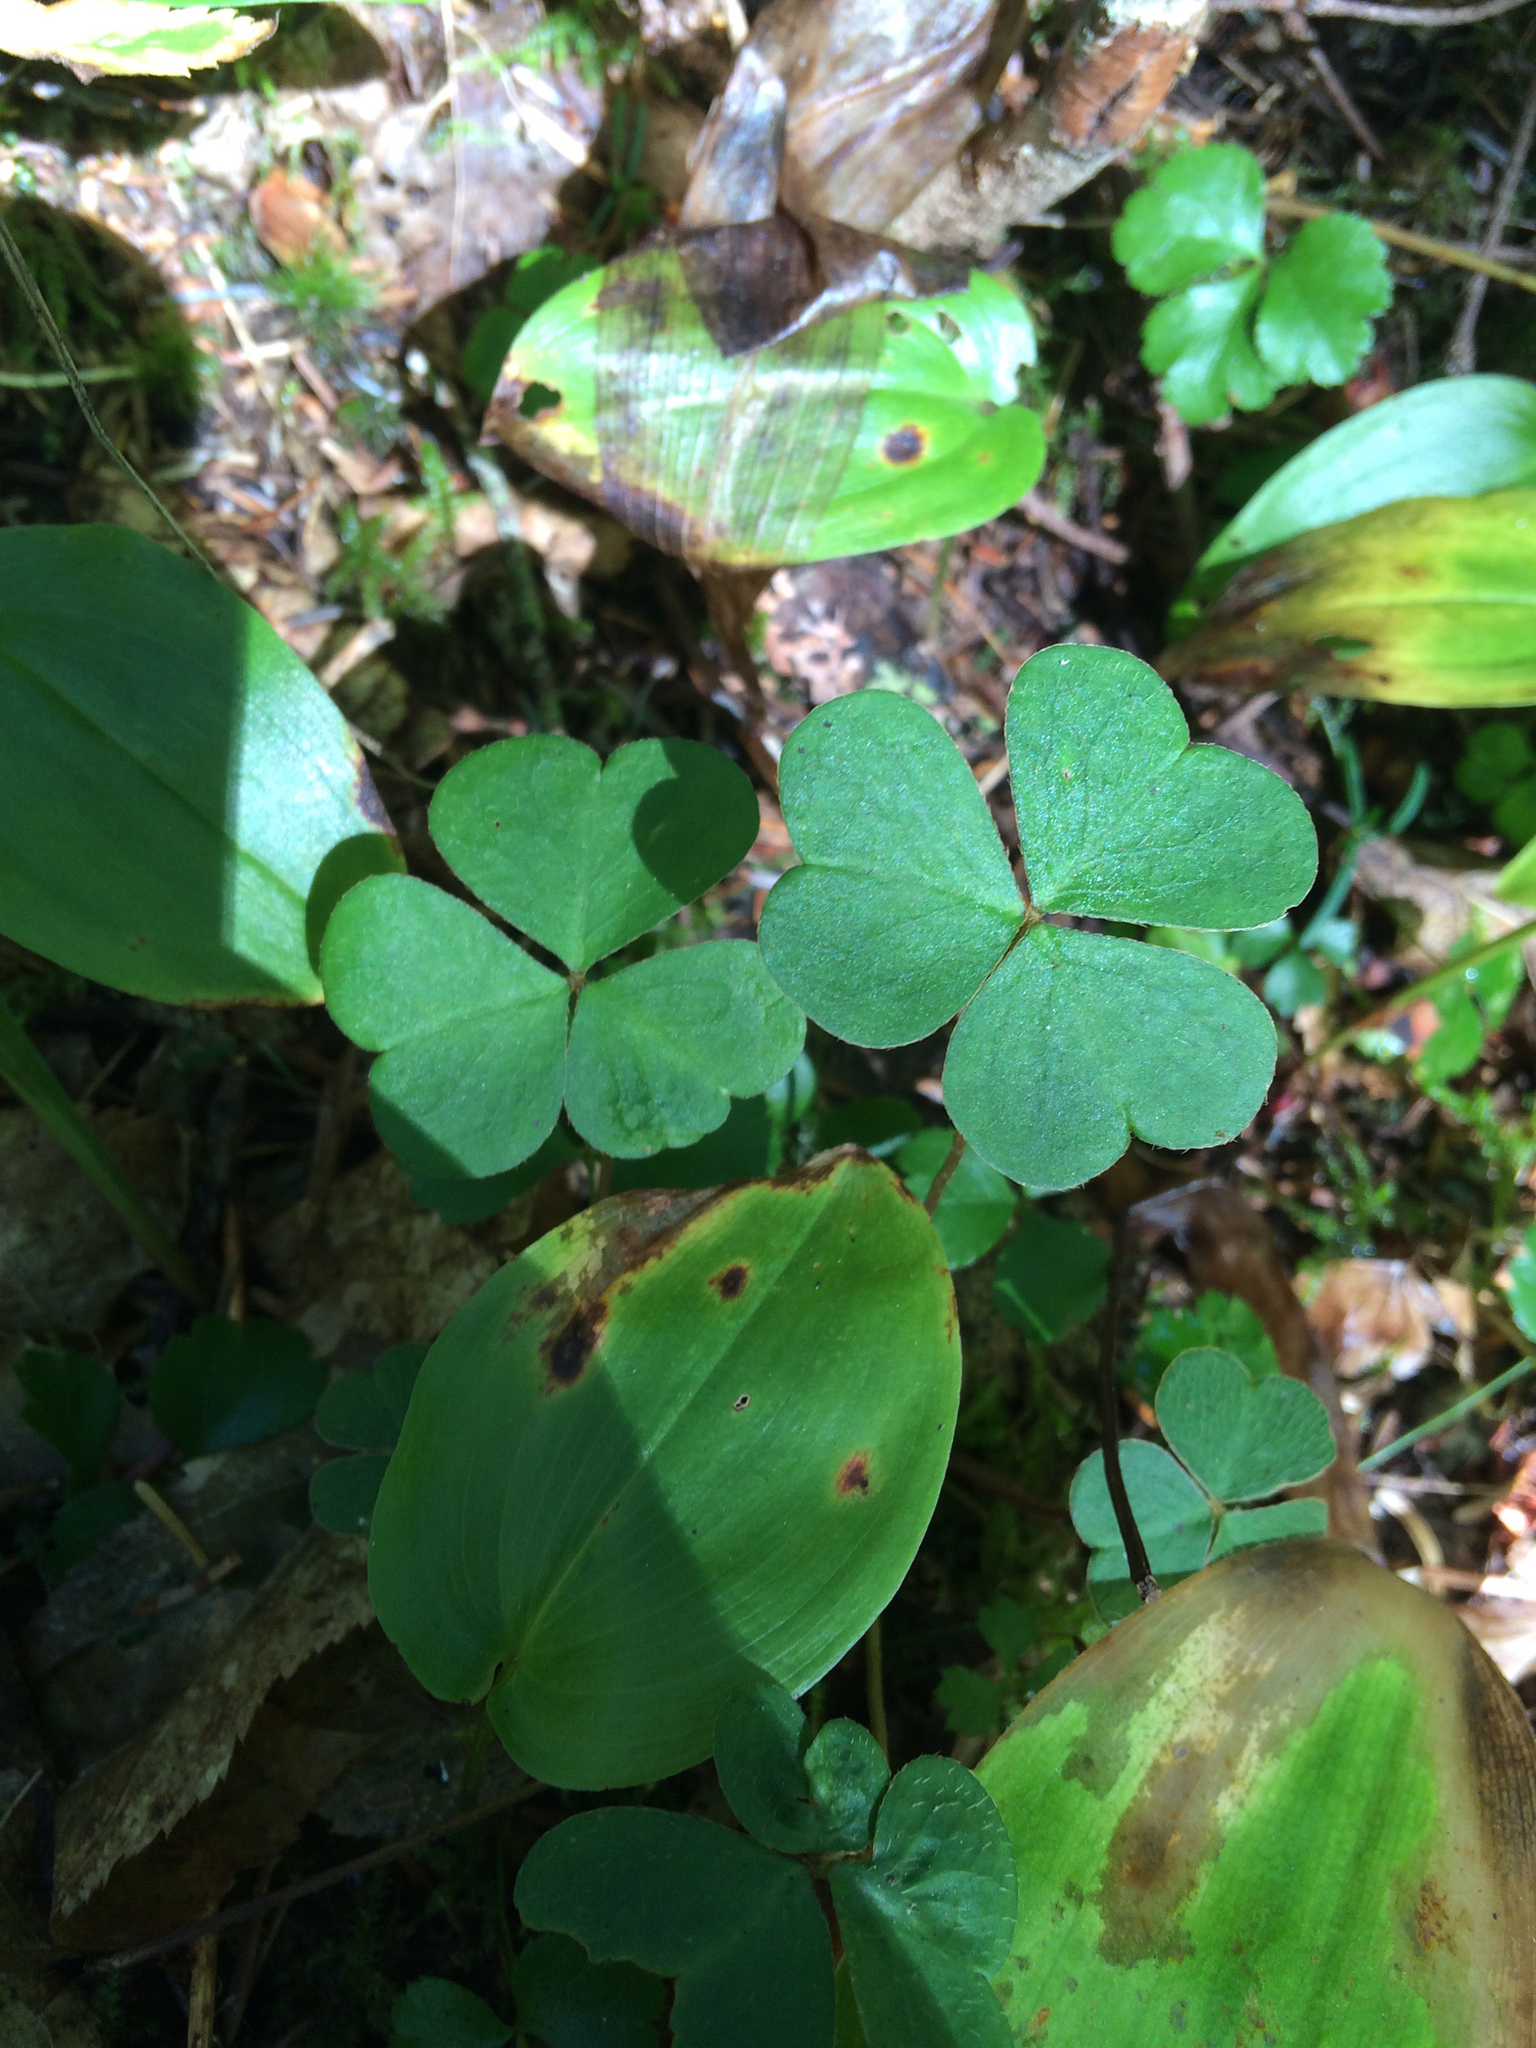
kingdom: Plantae
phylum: Tracheophyta
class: Magnoliopsida
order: Oxalidales
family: Oxalidaceae
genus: Oxalis
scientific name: Oxalis montana
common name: American wood-sorrel
